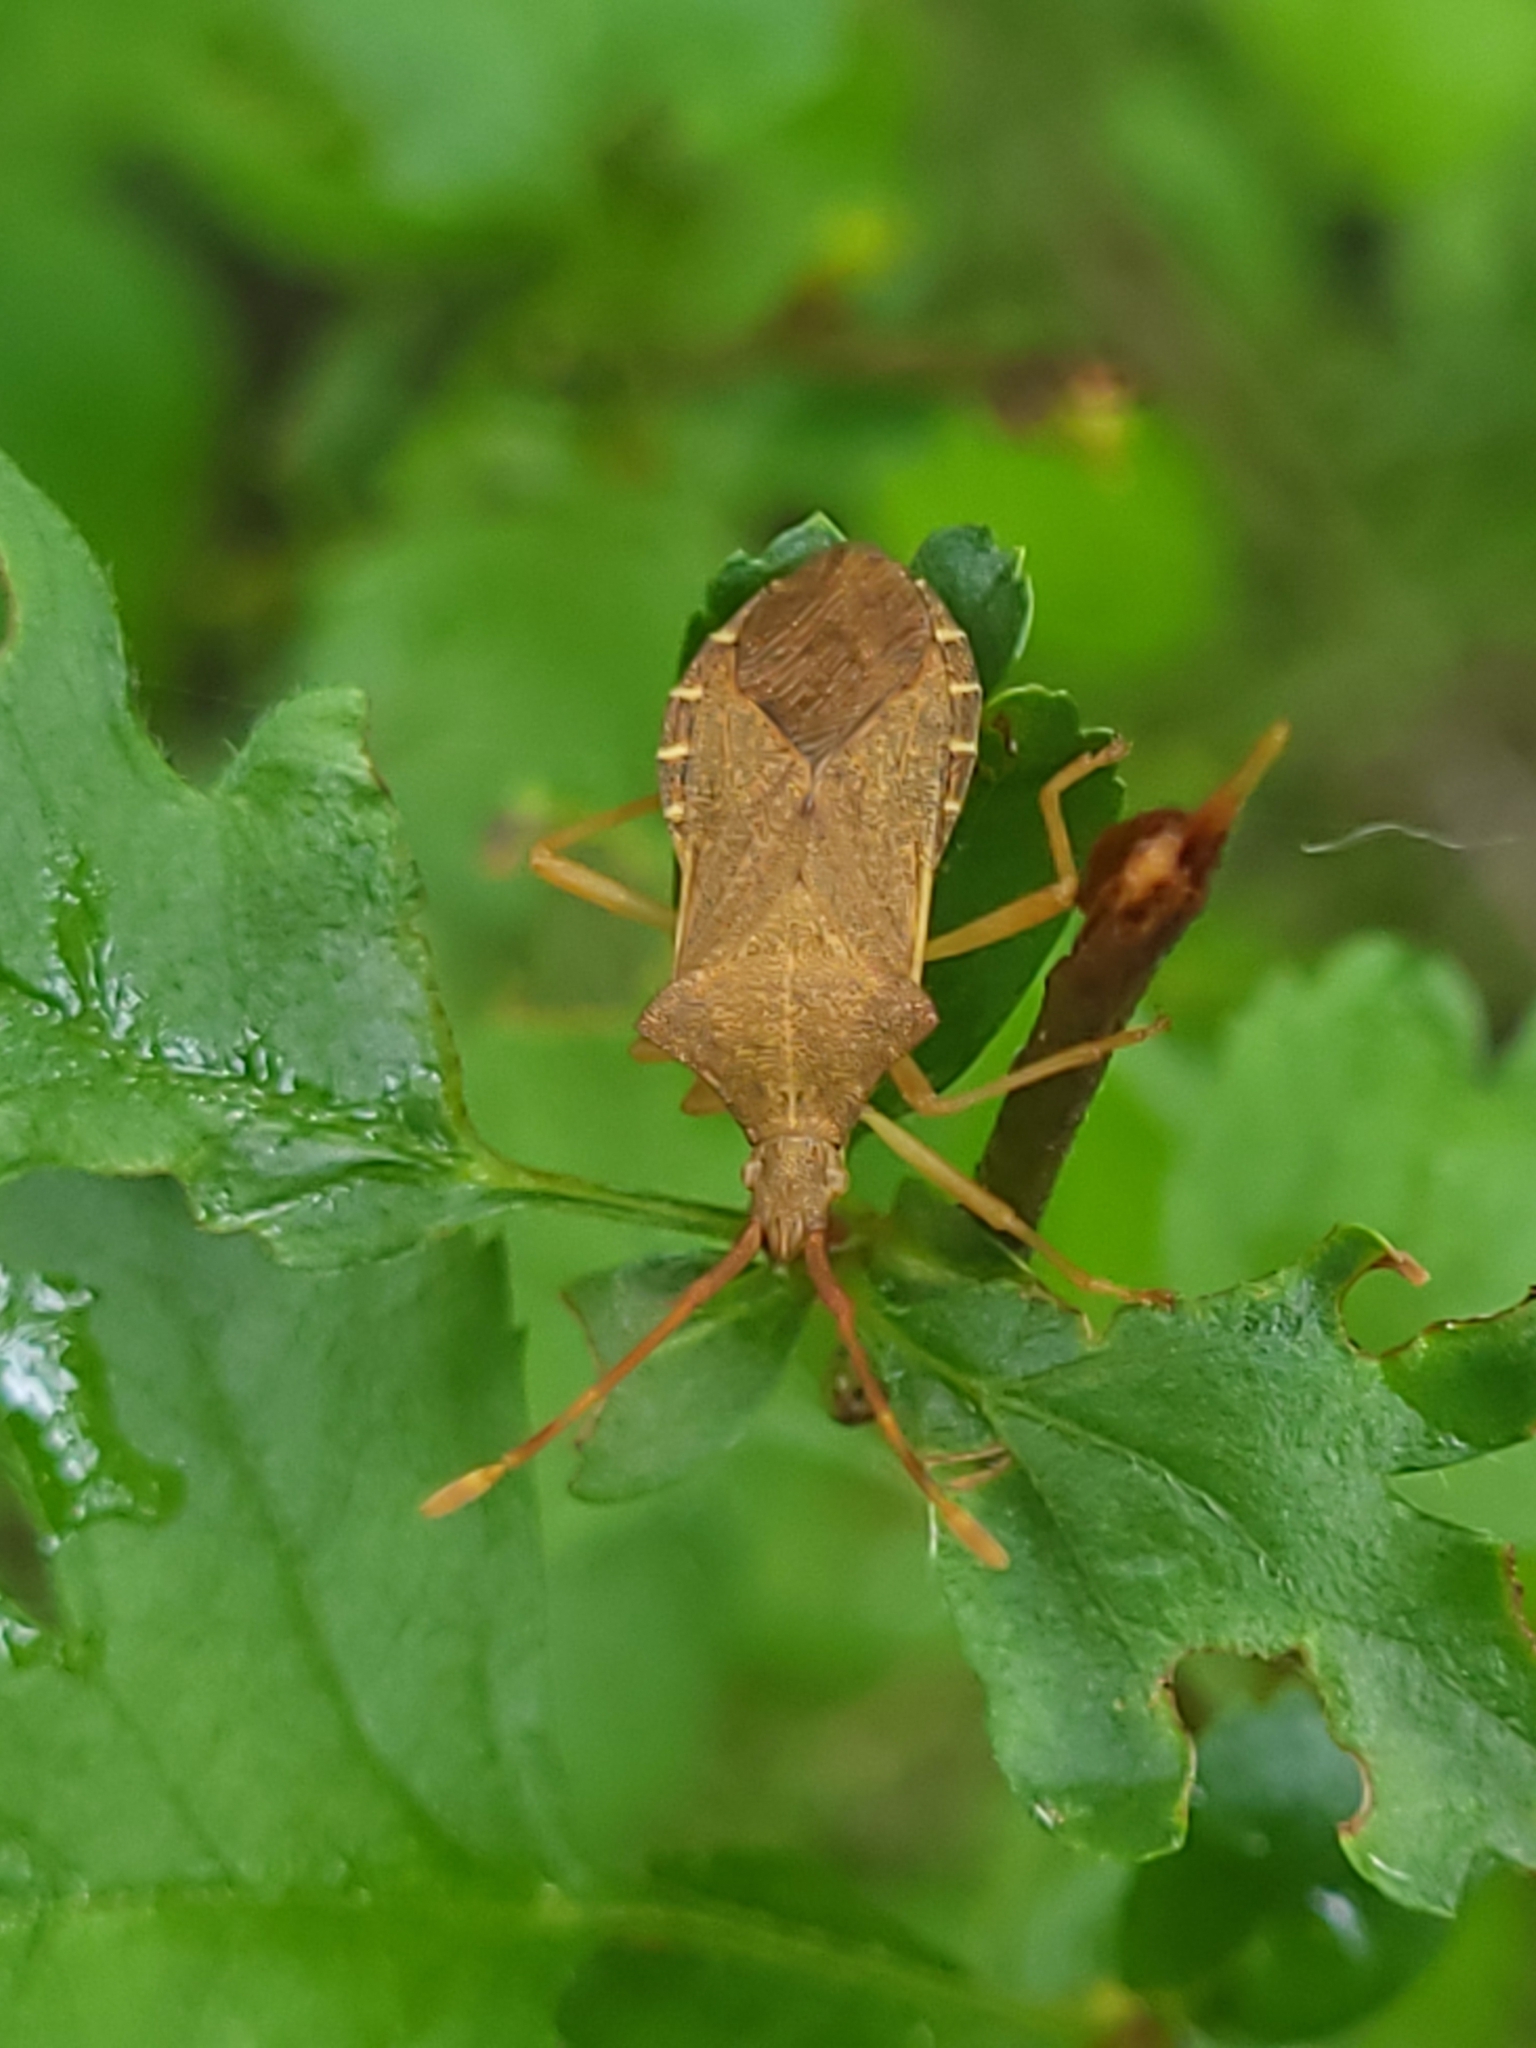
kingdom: Animalia
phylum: Arthropoda
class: Insecta
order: Hemiptera
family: Coreidae
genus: Gonocerus
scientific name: Gonocerus acuteangulatus
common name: Box bug
